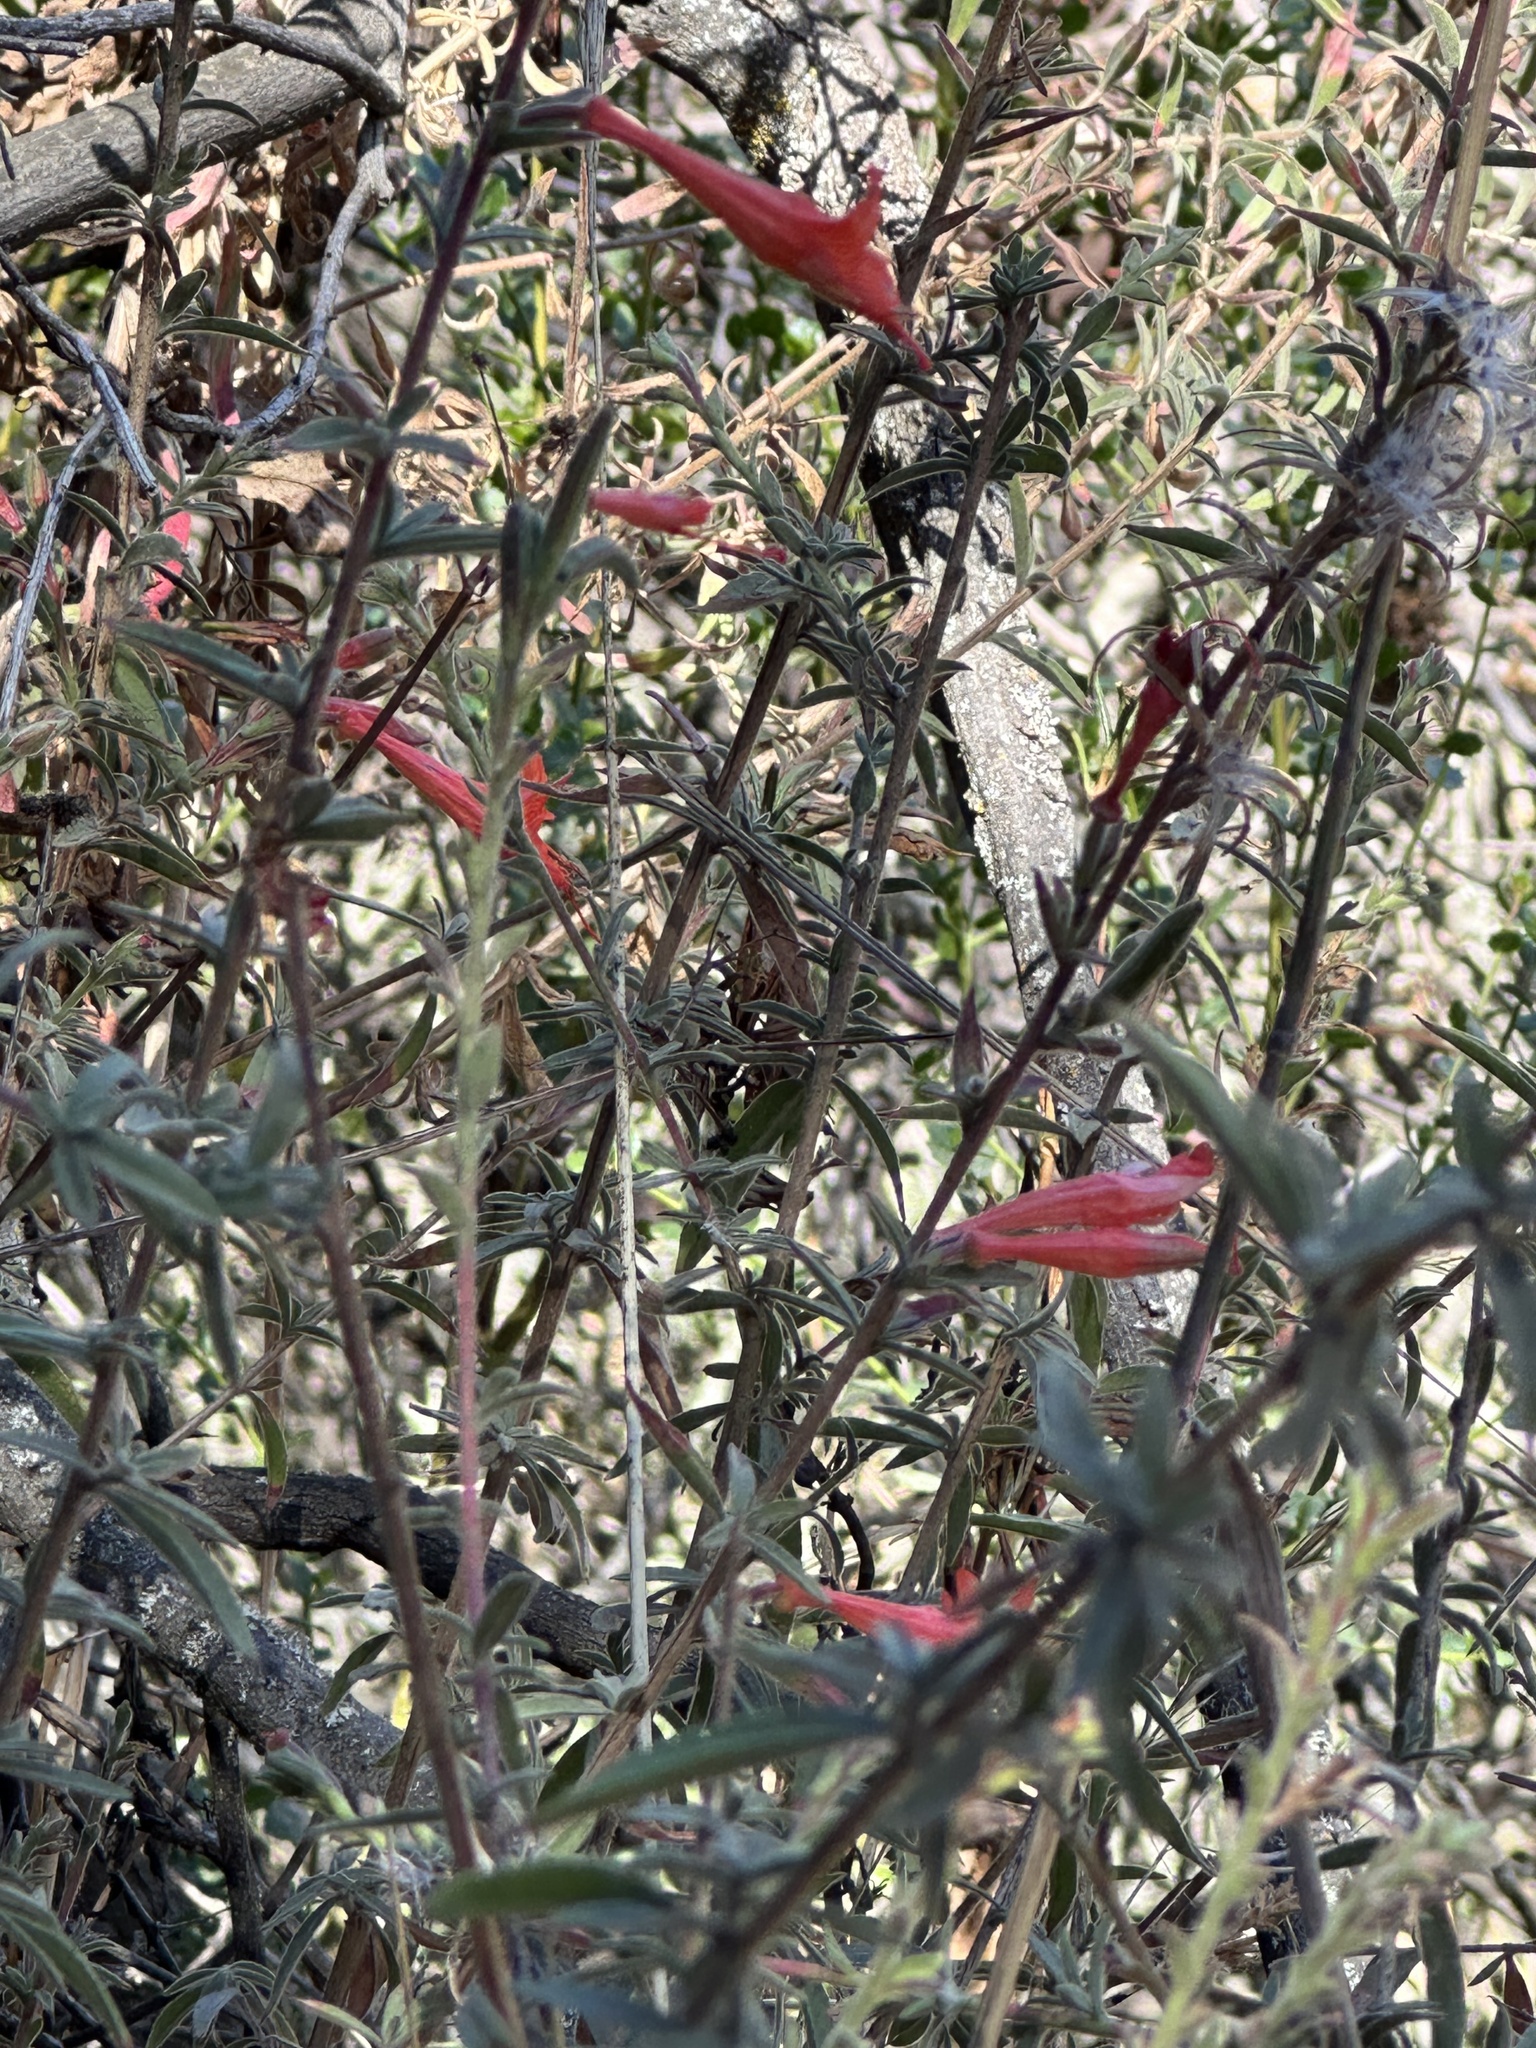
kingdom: Plantae
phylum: Tracheophyta
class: Magnoliopsida
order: Myrtales
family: Onagraceae
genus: Epilobium
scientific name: Epilobium canum
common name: California-fuchsia
